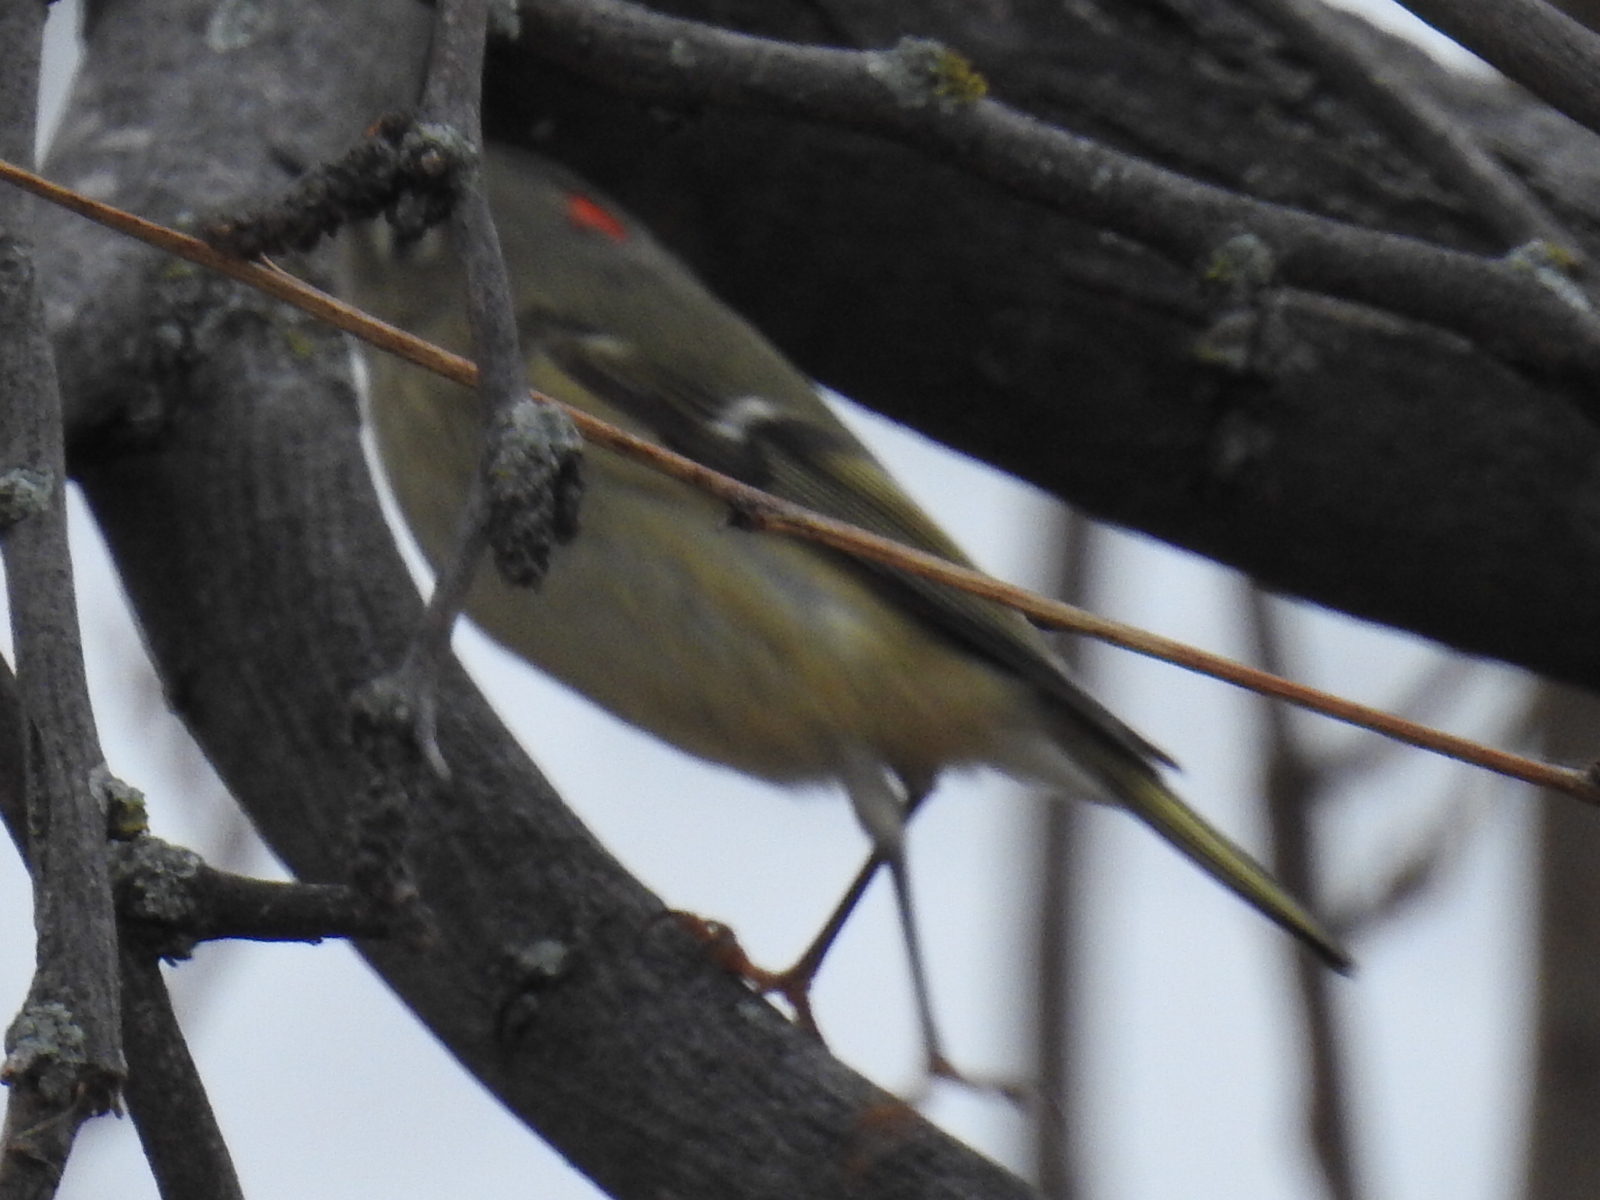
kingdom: Animalia
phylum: Chordata
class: Aves
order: Passeriformes
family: Regulidae
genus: Regulus
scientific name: Regulus calendula
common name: Ruby-crowned kinglet
